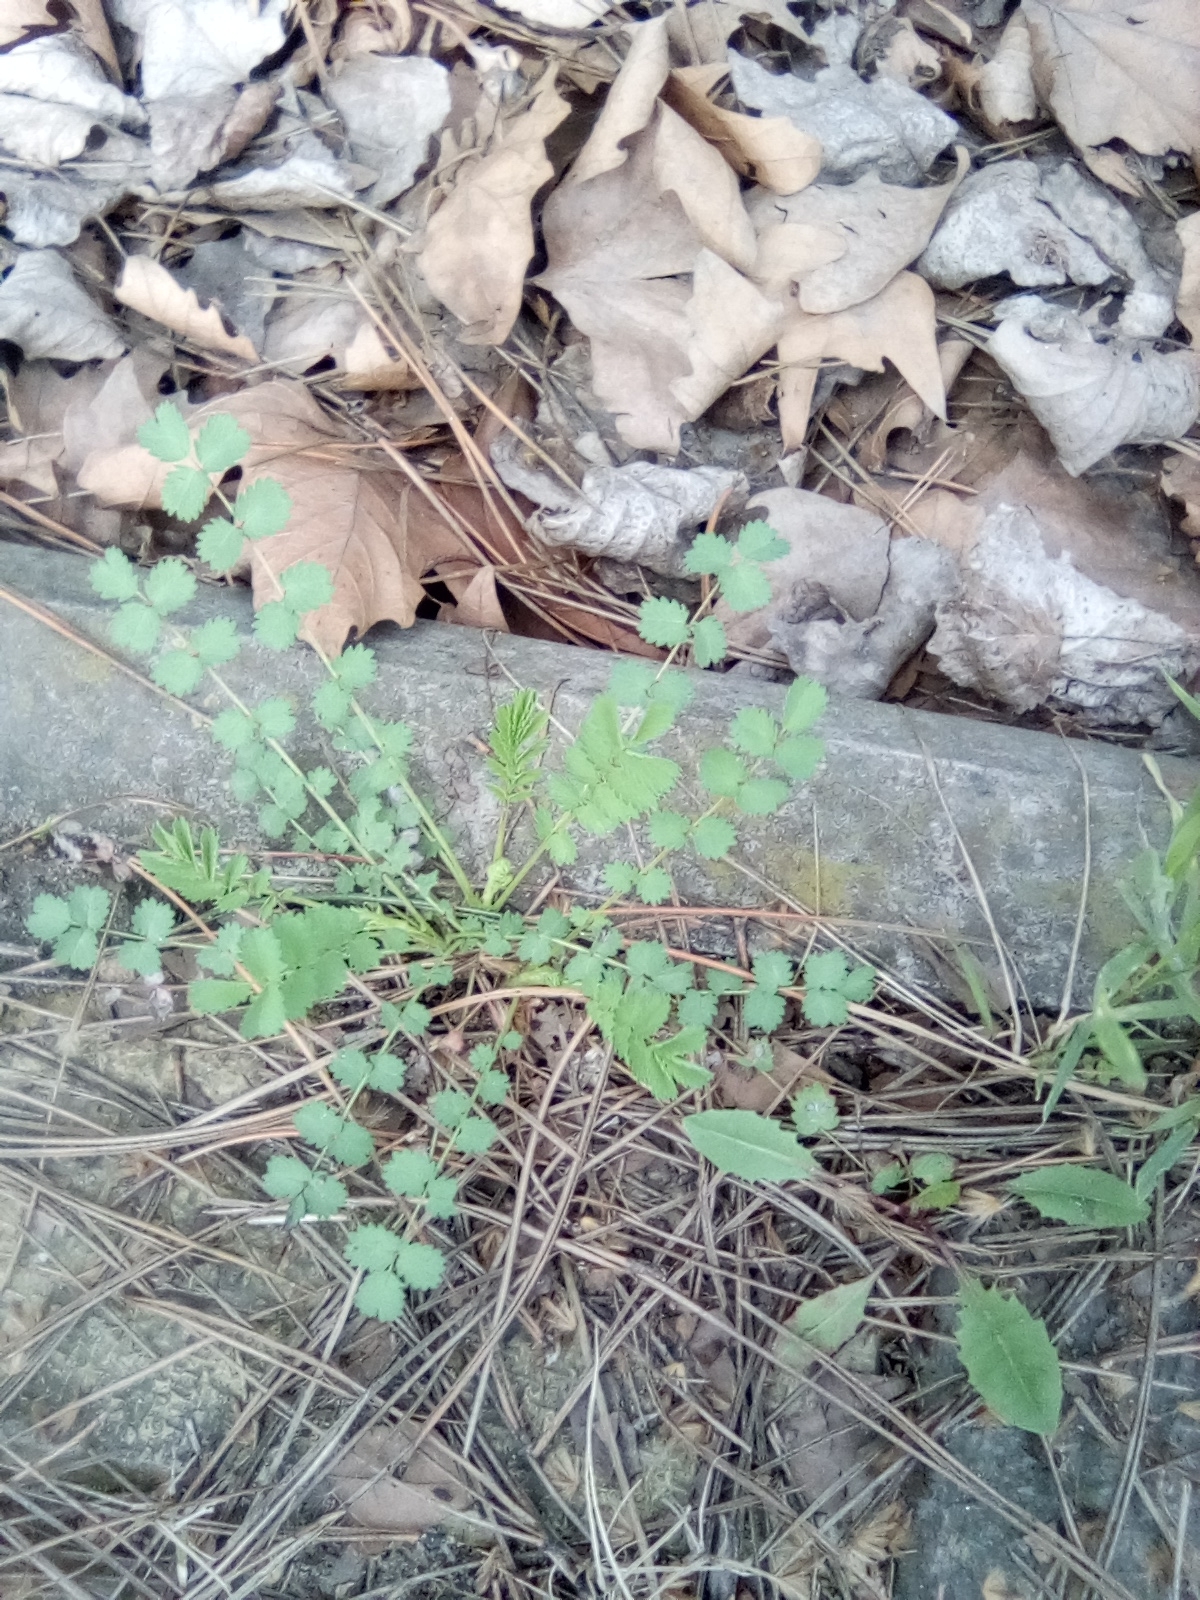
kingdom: Plantae
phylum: Tracheophyta
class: Magnoliopsida
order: Rosales
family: Rosaceae
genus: Poterium
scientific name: Poterium sanguisorba
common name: Salad burnet
